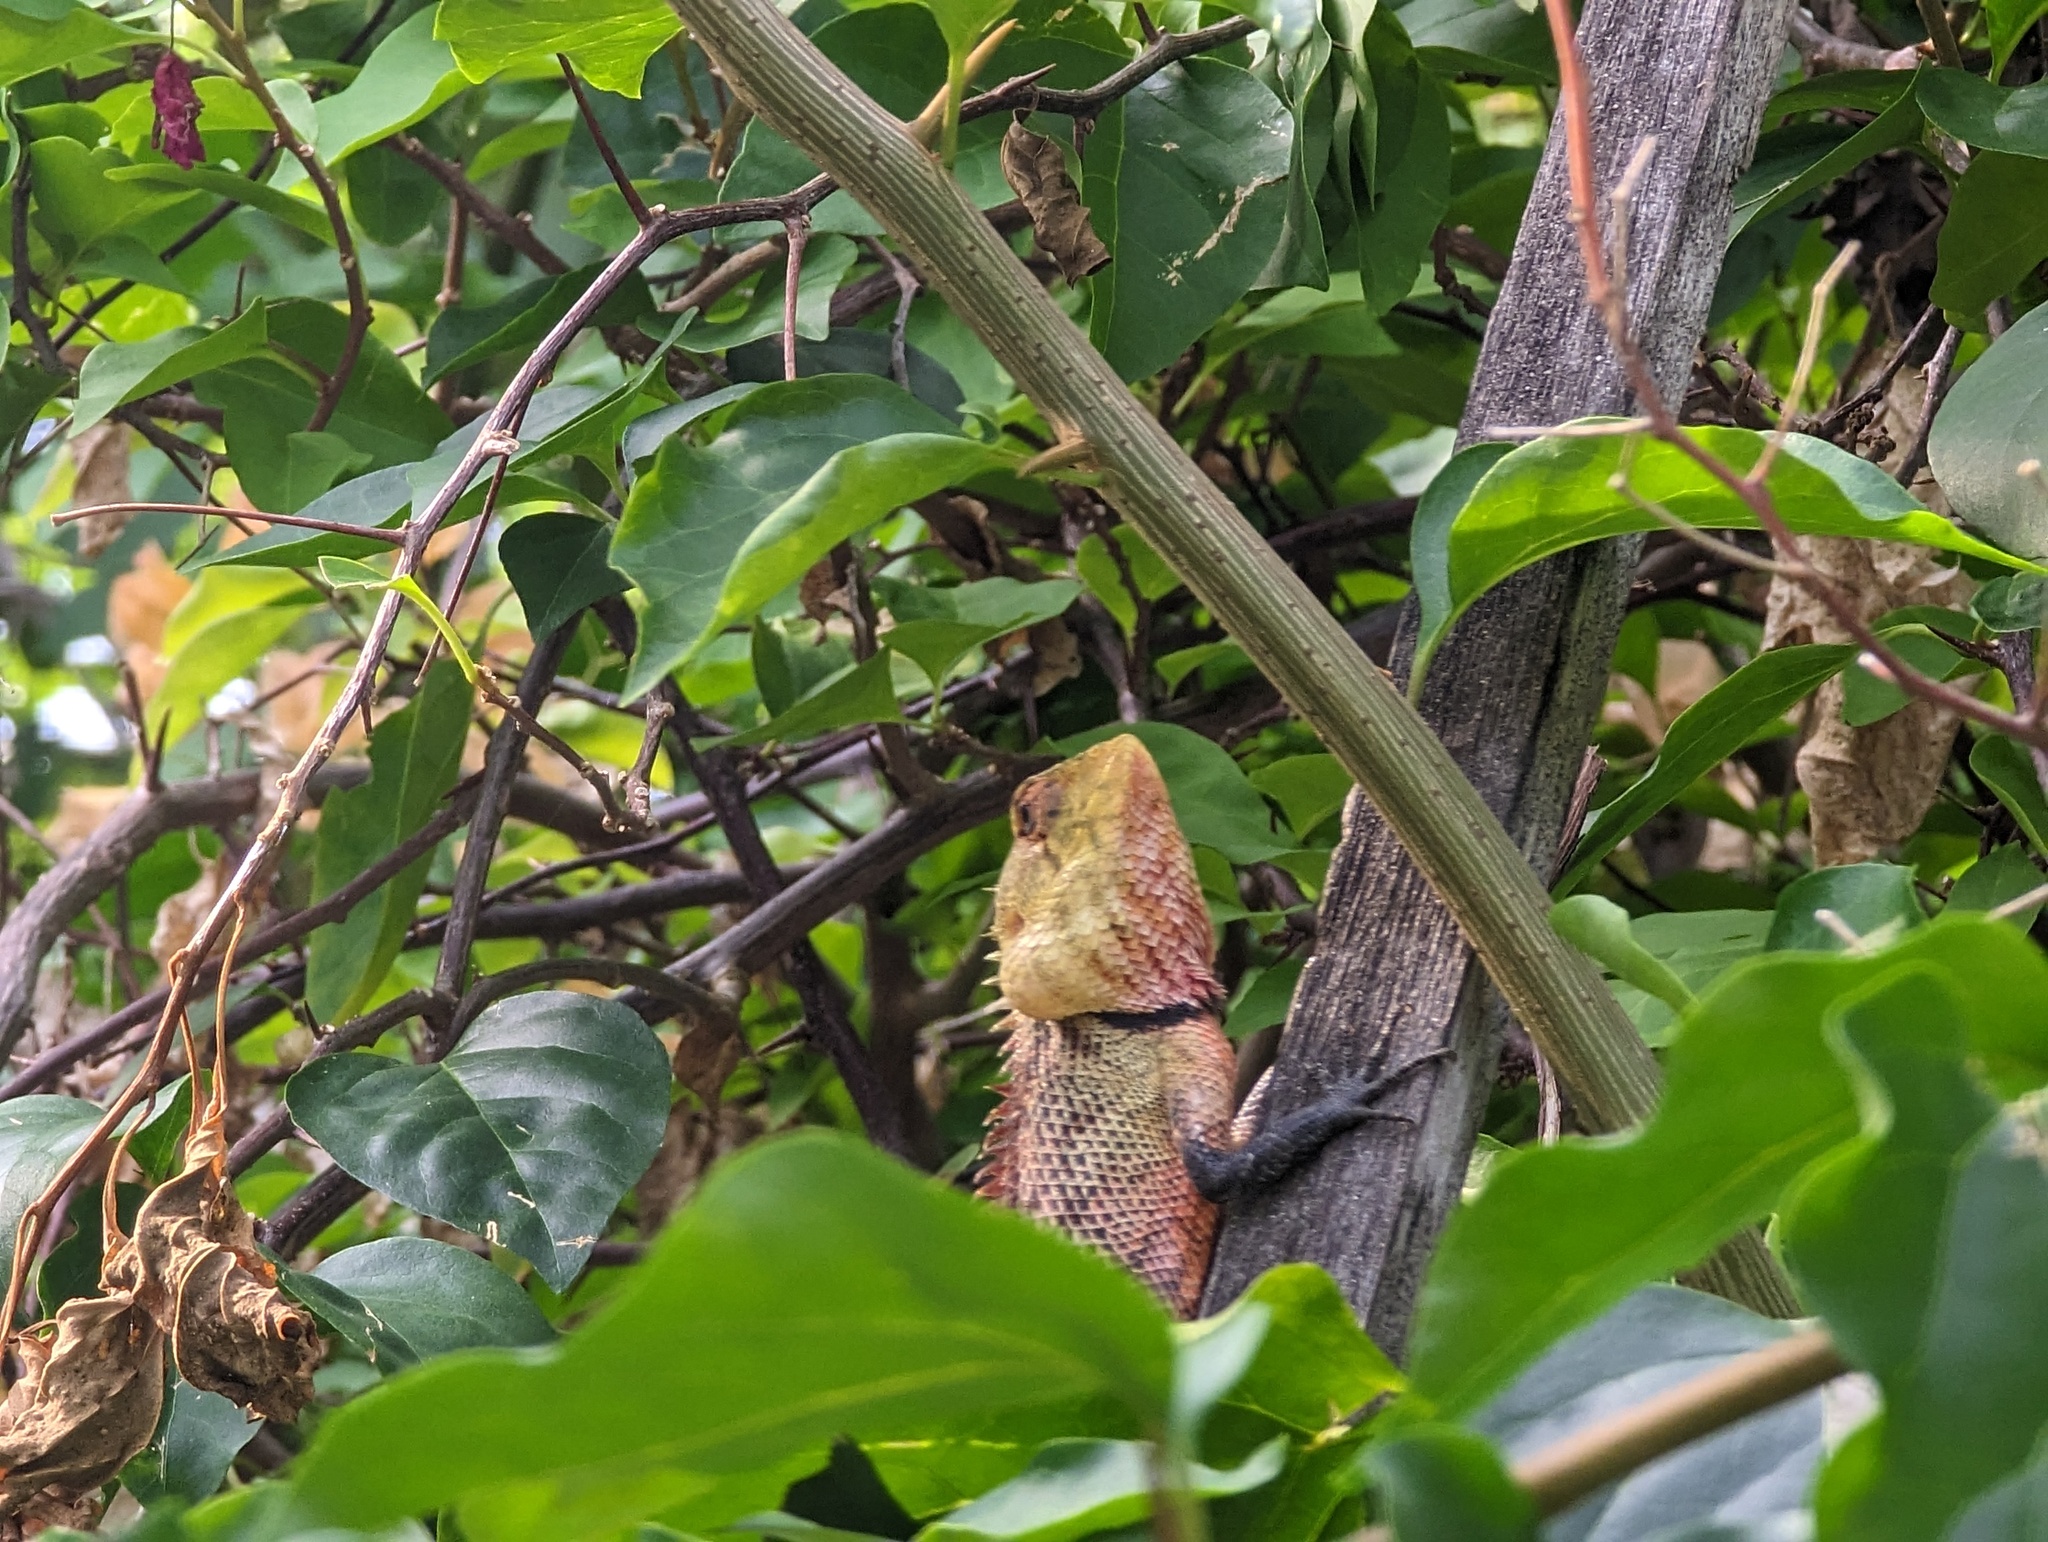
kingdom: Animalia
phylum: Chordata
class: Squamata
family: Agamidae
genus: Calotes
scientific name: Calotes versicolor
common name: Oriental garden lizard
